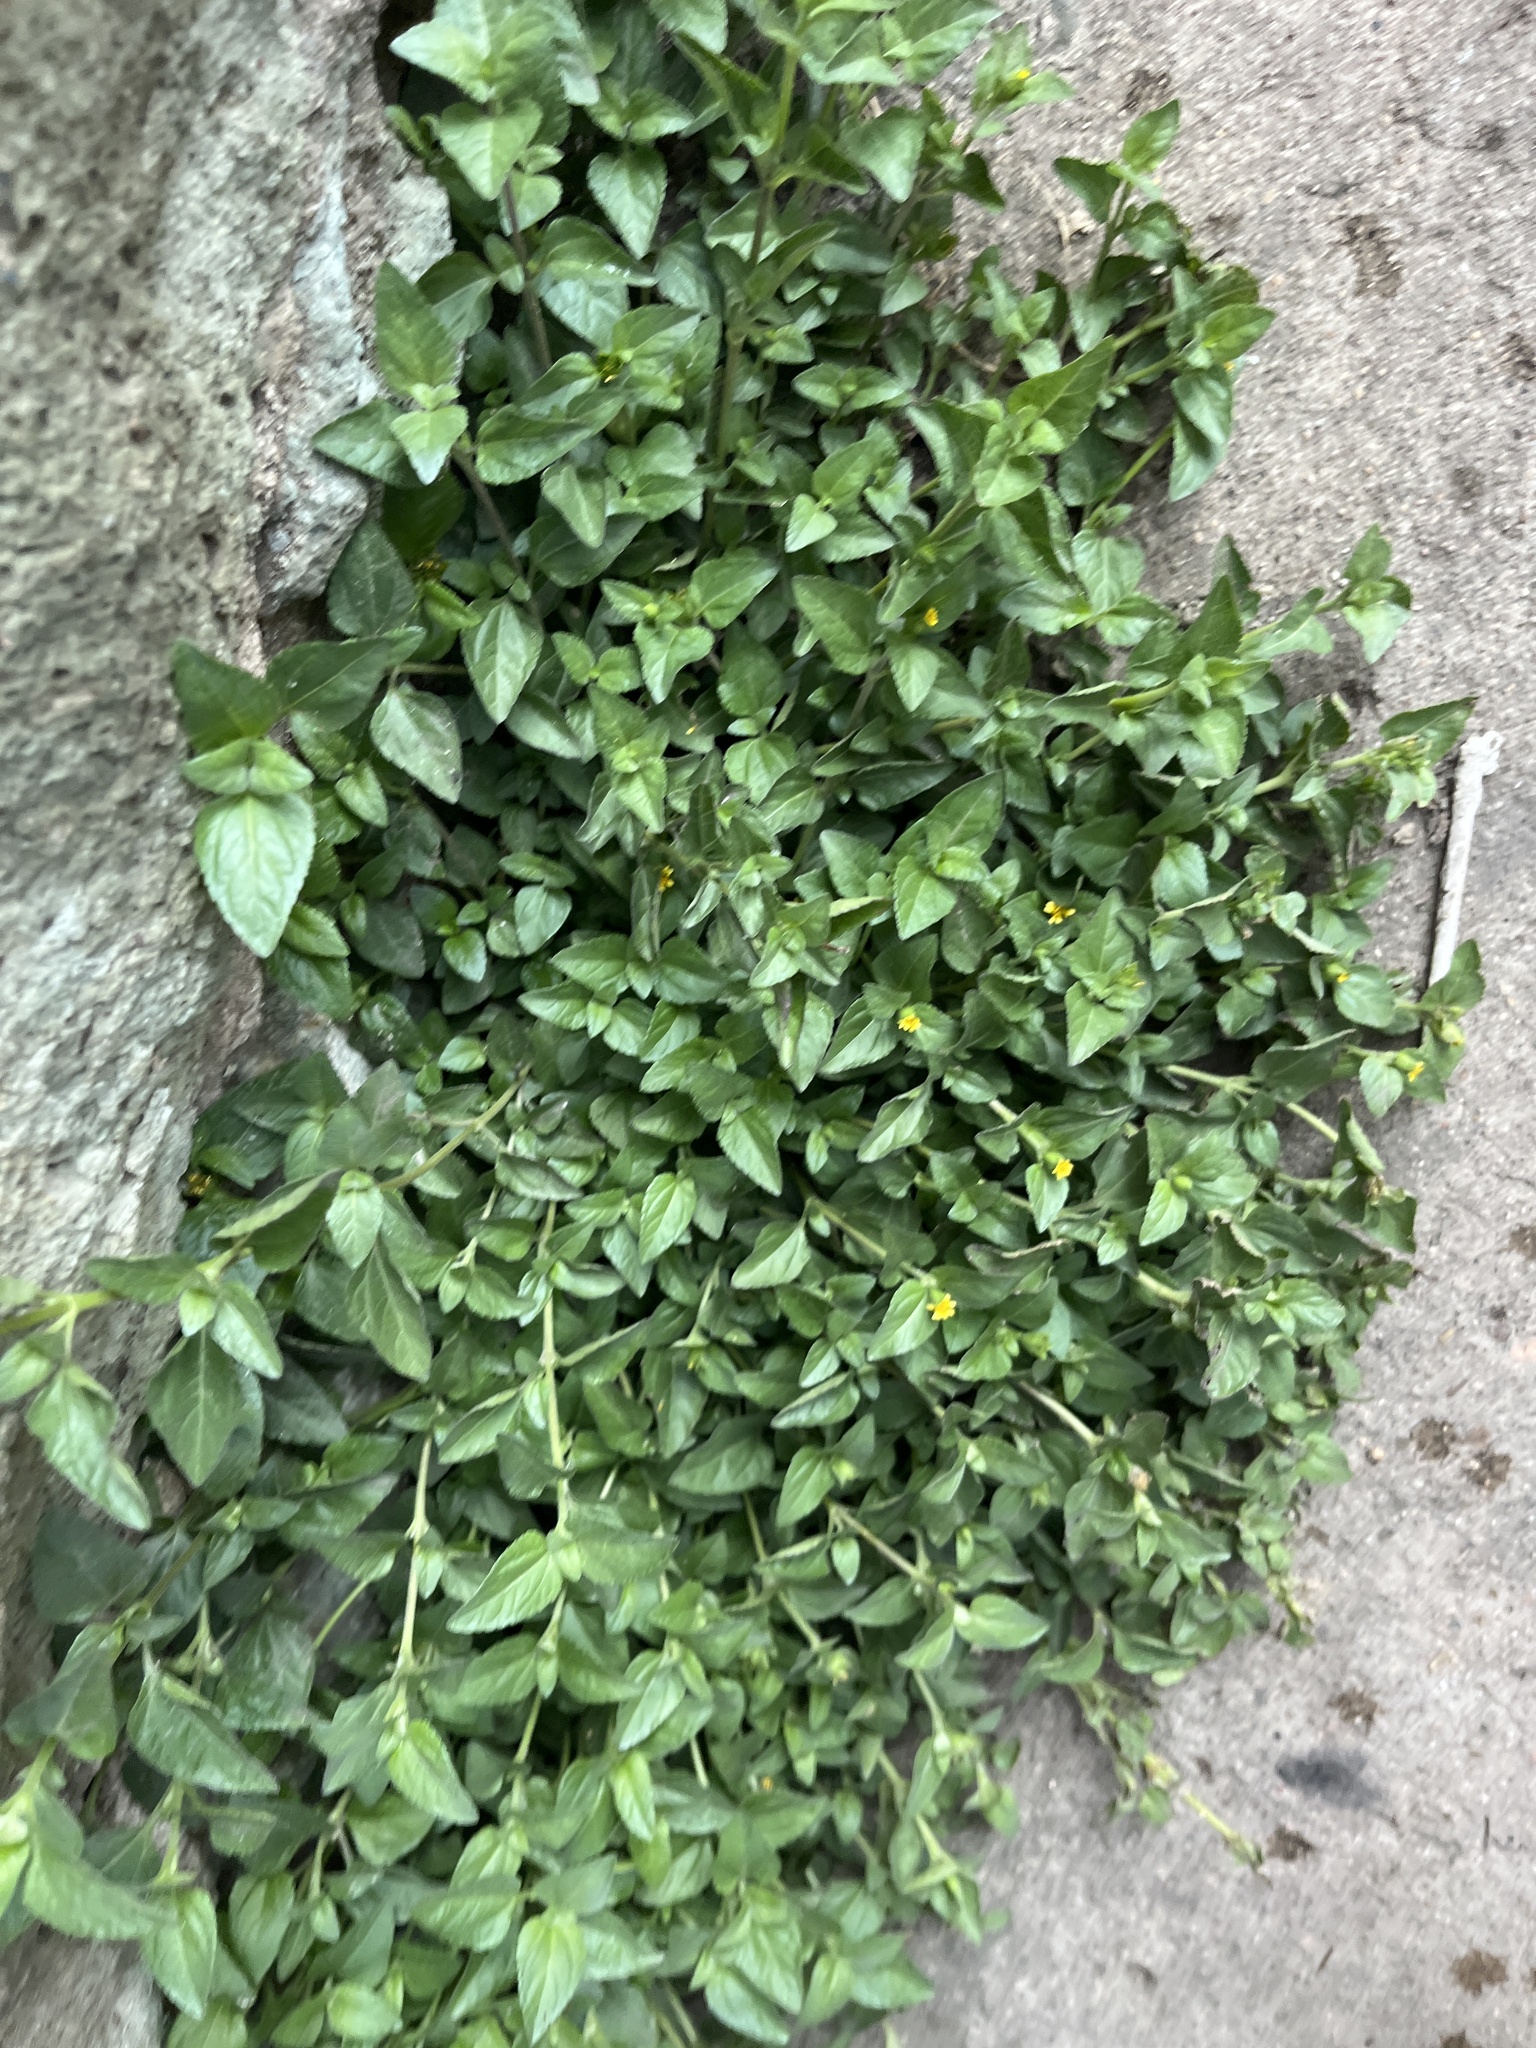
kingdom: Plantae
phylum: Tracheophyta
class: Magnoliopsida
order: Asterales
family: Asteraceae
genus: Calyptocarpus
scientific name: Calyptocarpus vialis
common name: Straggler daisy
